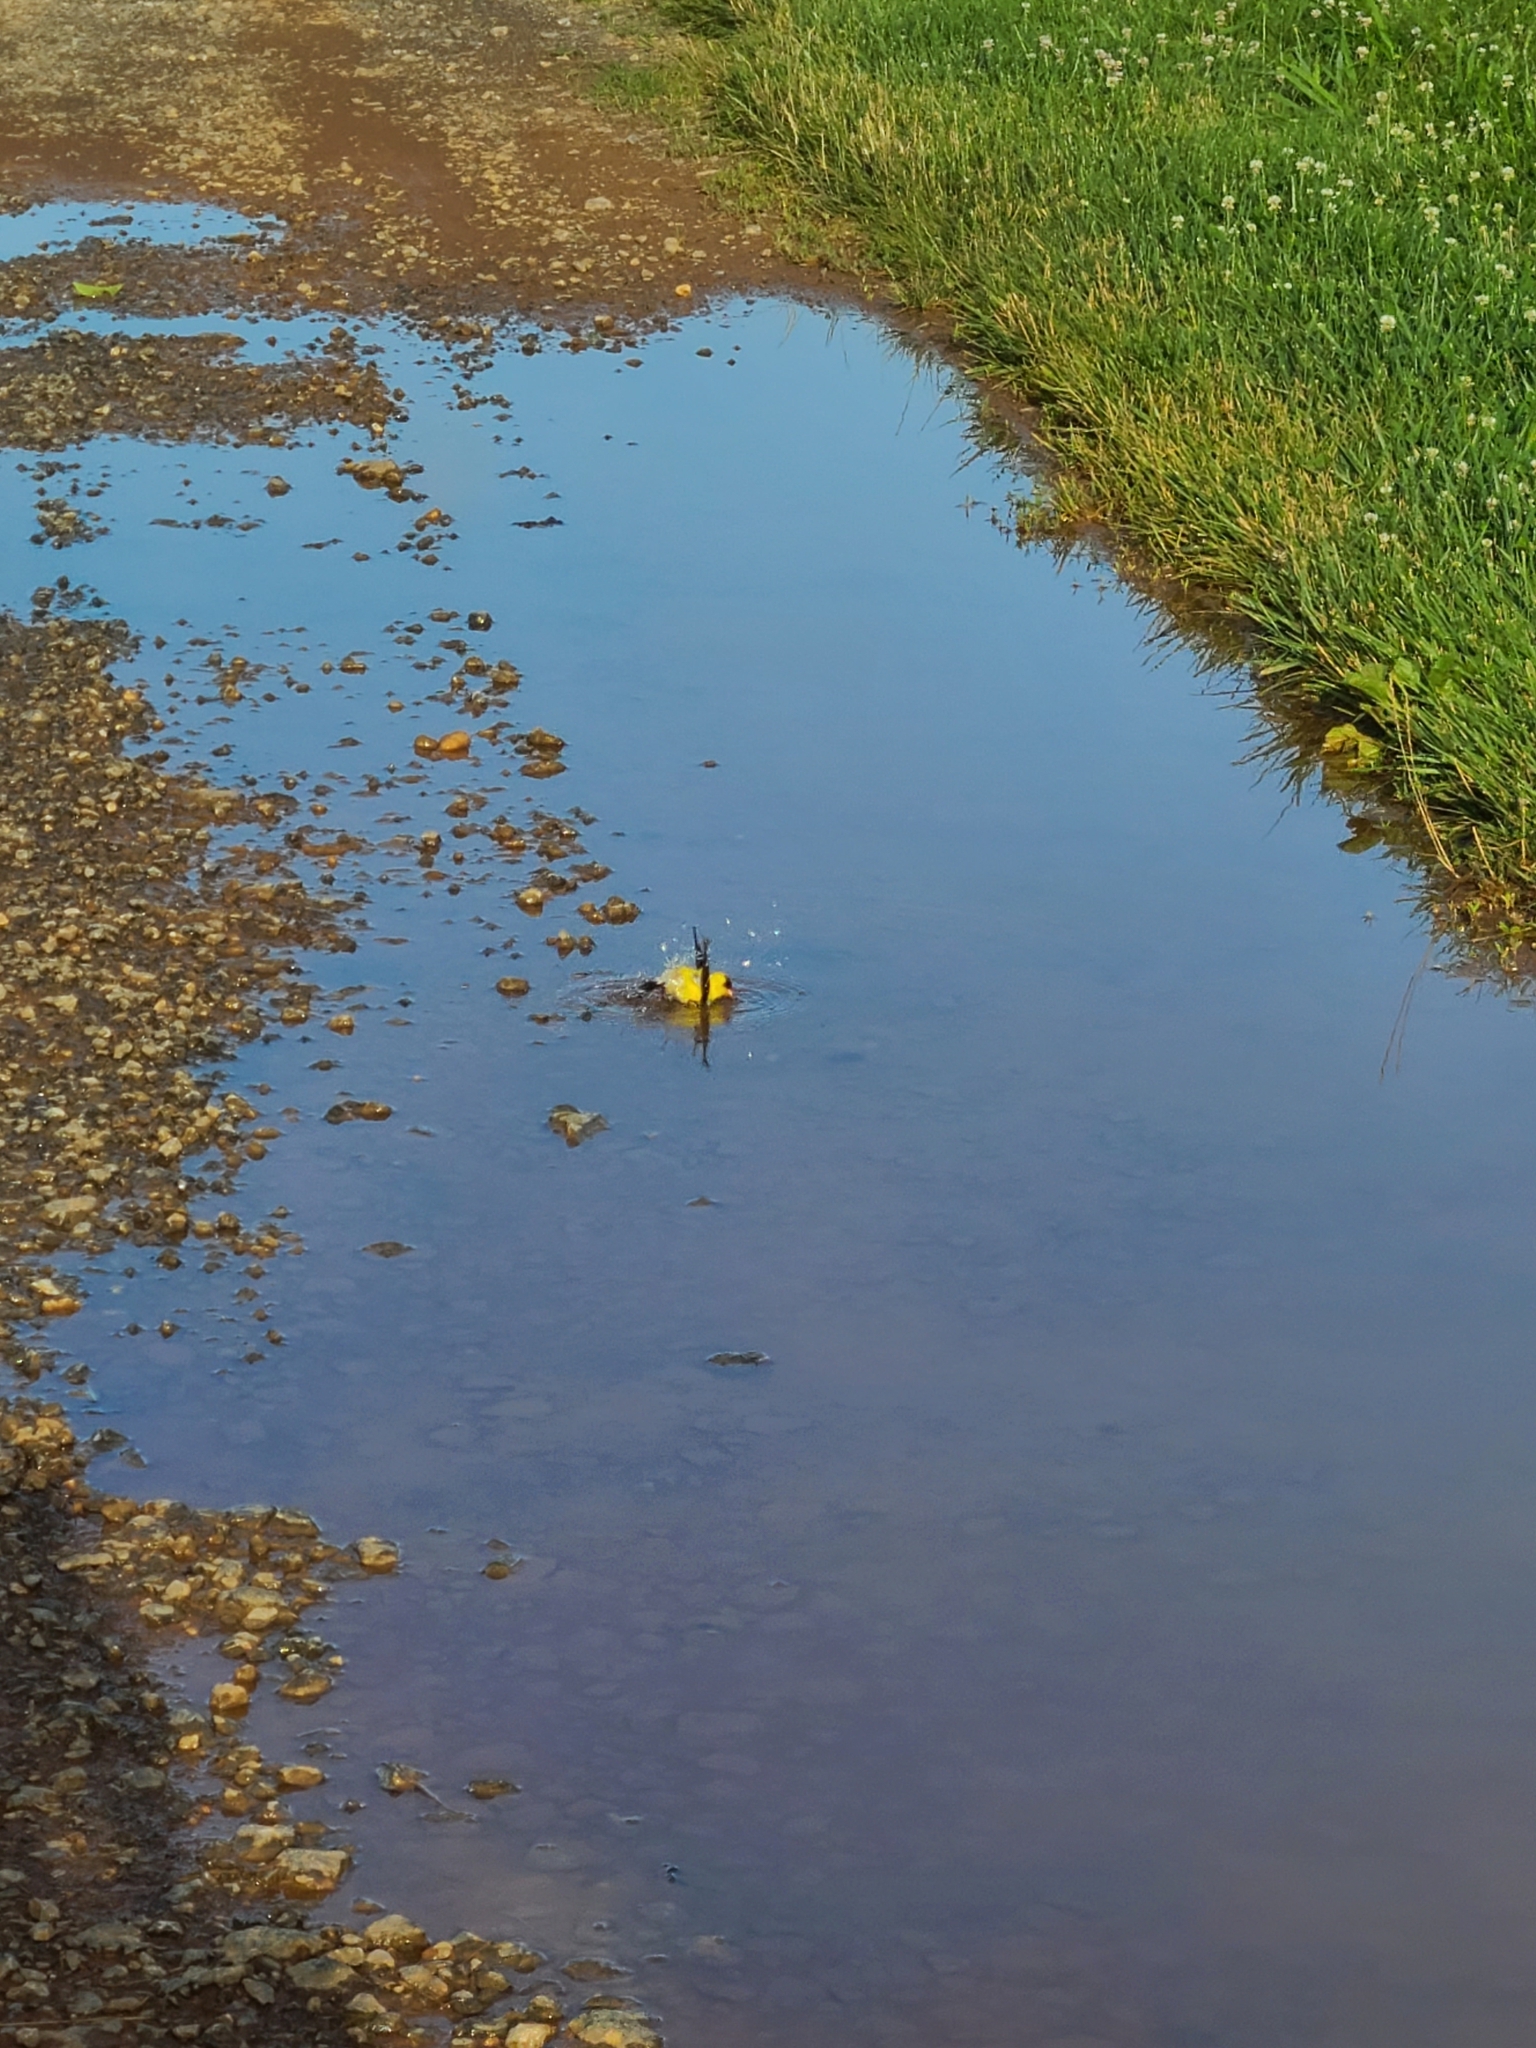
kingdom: Animalia
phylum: Chordata
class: Aves
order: Passeriformes
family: Fringillidae
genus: Spinus
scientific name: Spinus tristis
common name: American goldfinch
